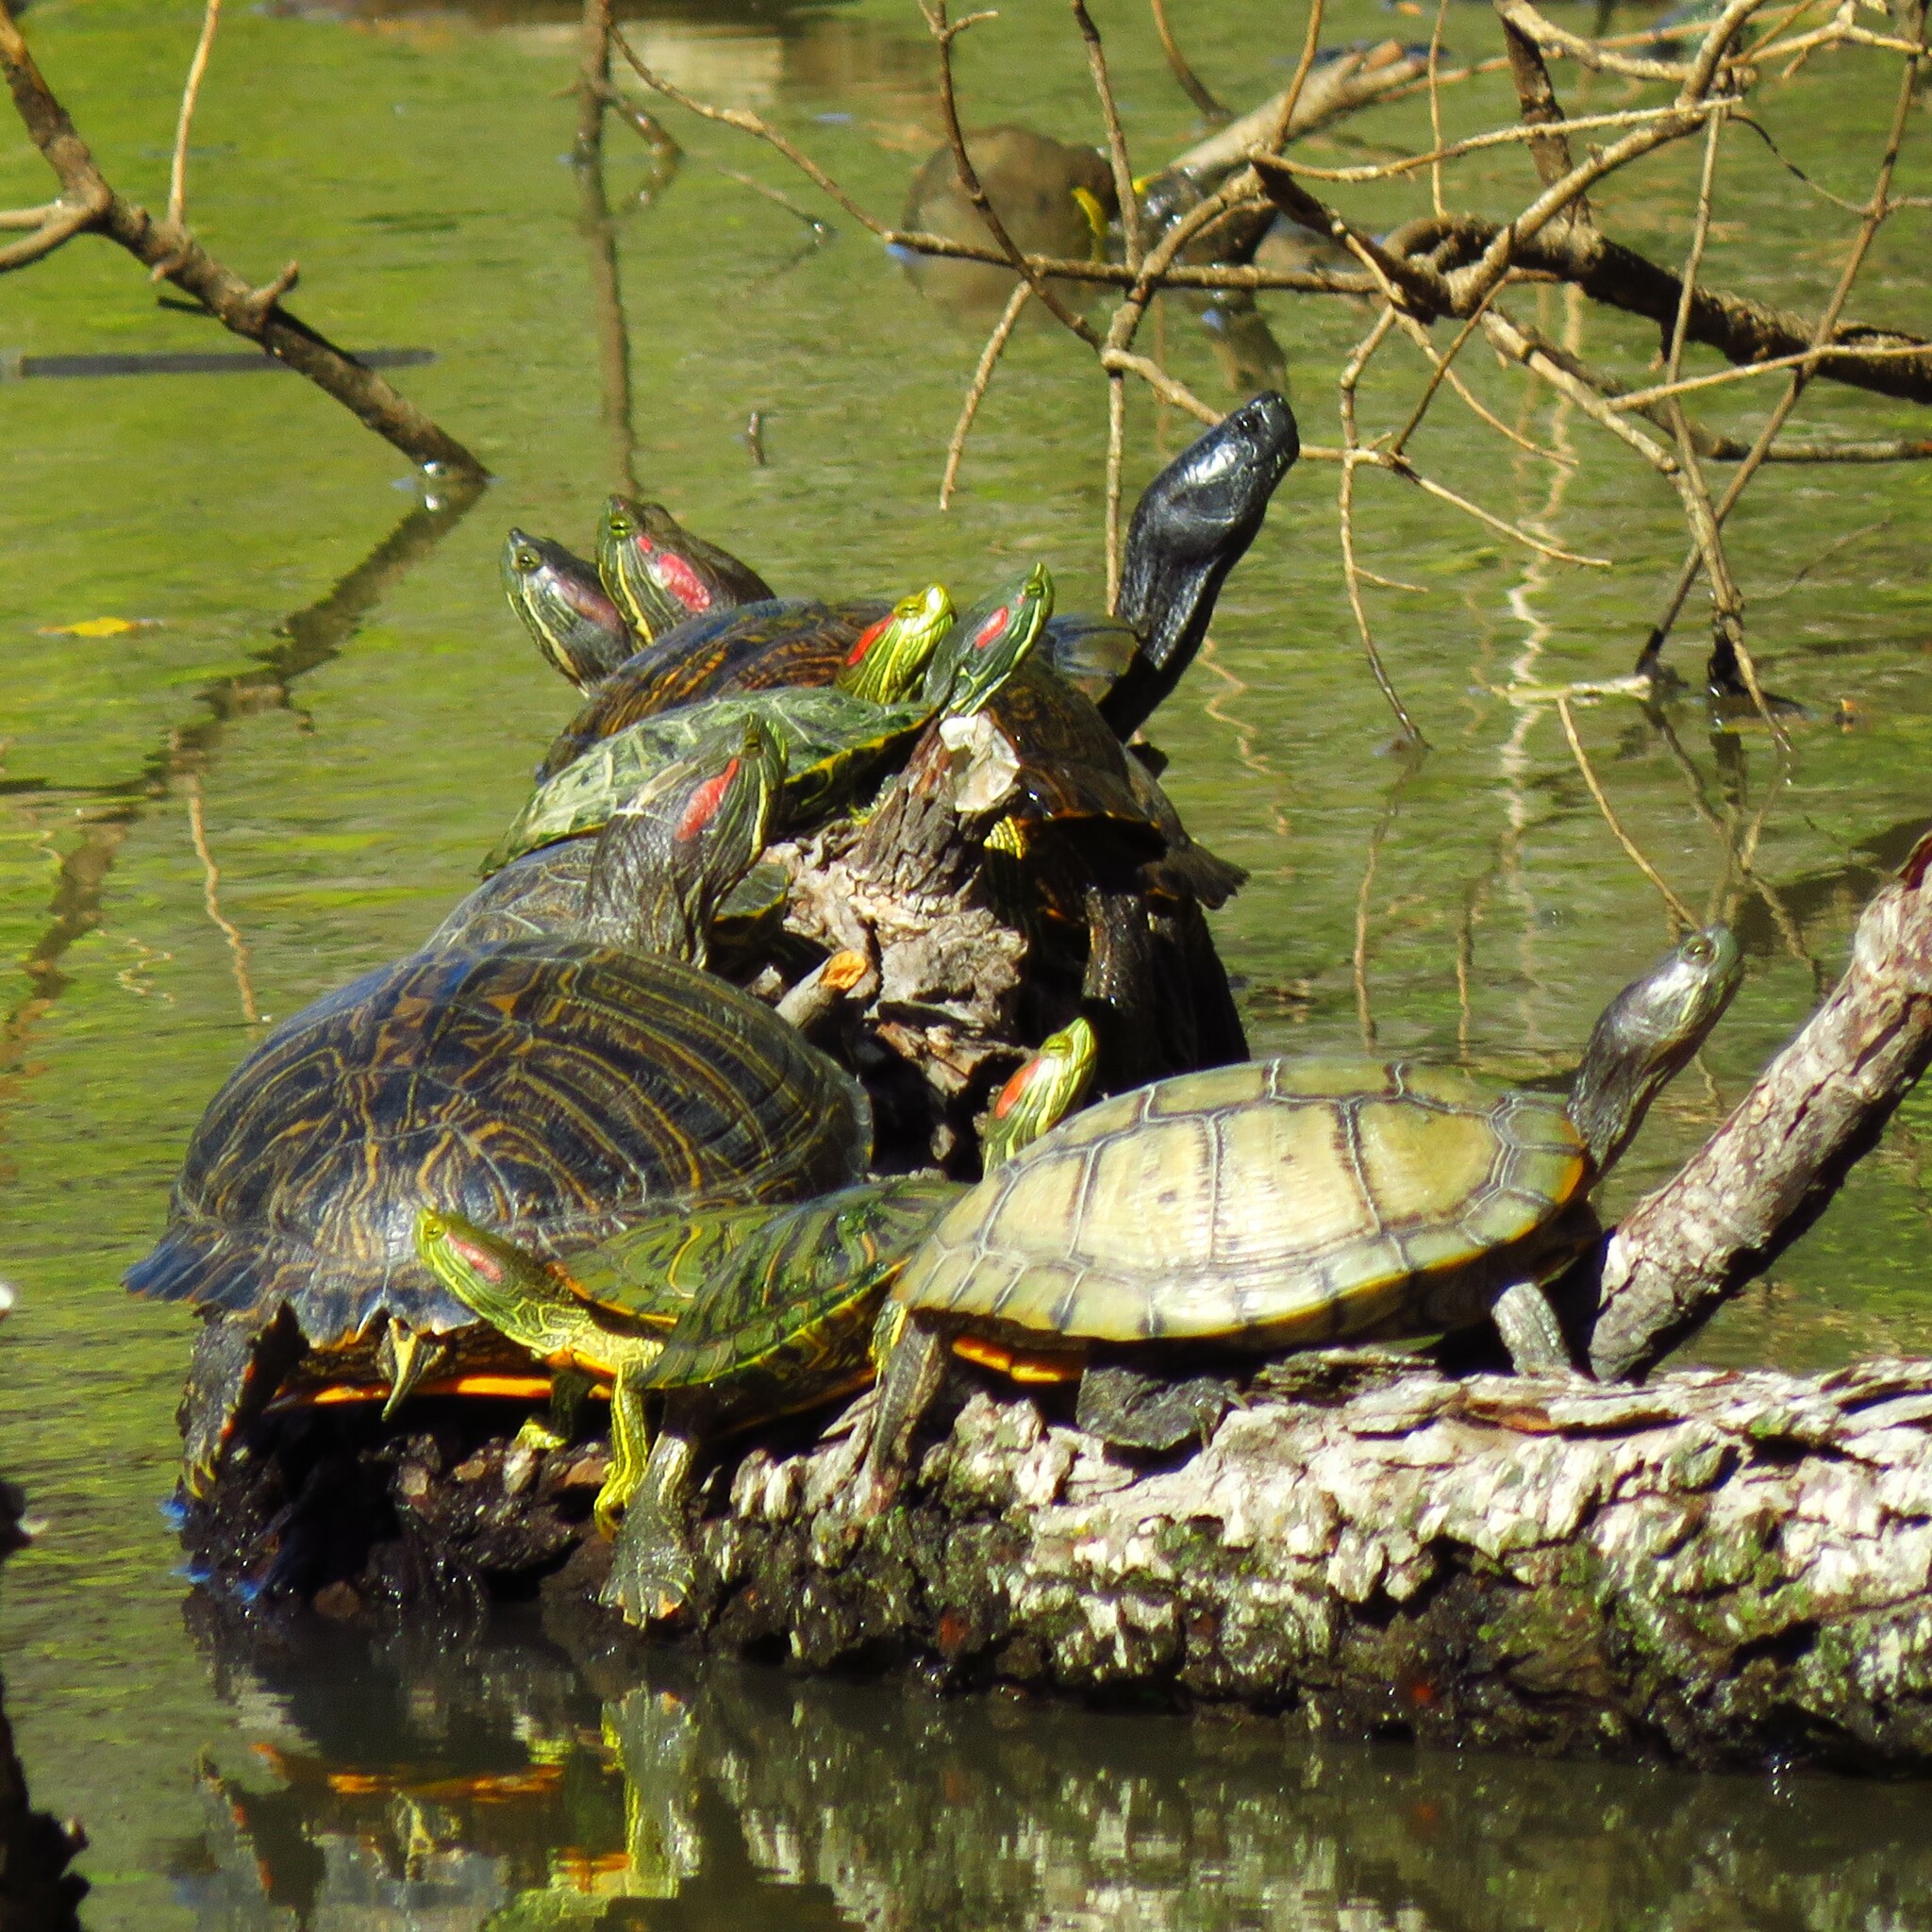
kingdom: Animalia
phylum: Chordata
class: Testudines
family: Emydidae
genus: Trachemys
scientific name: Trachemys scripta
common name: Slider
